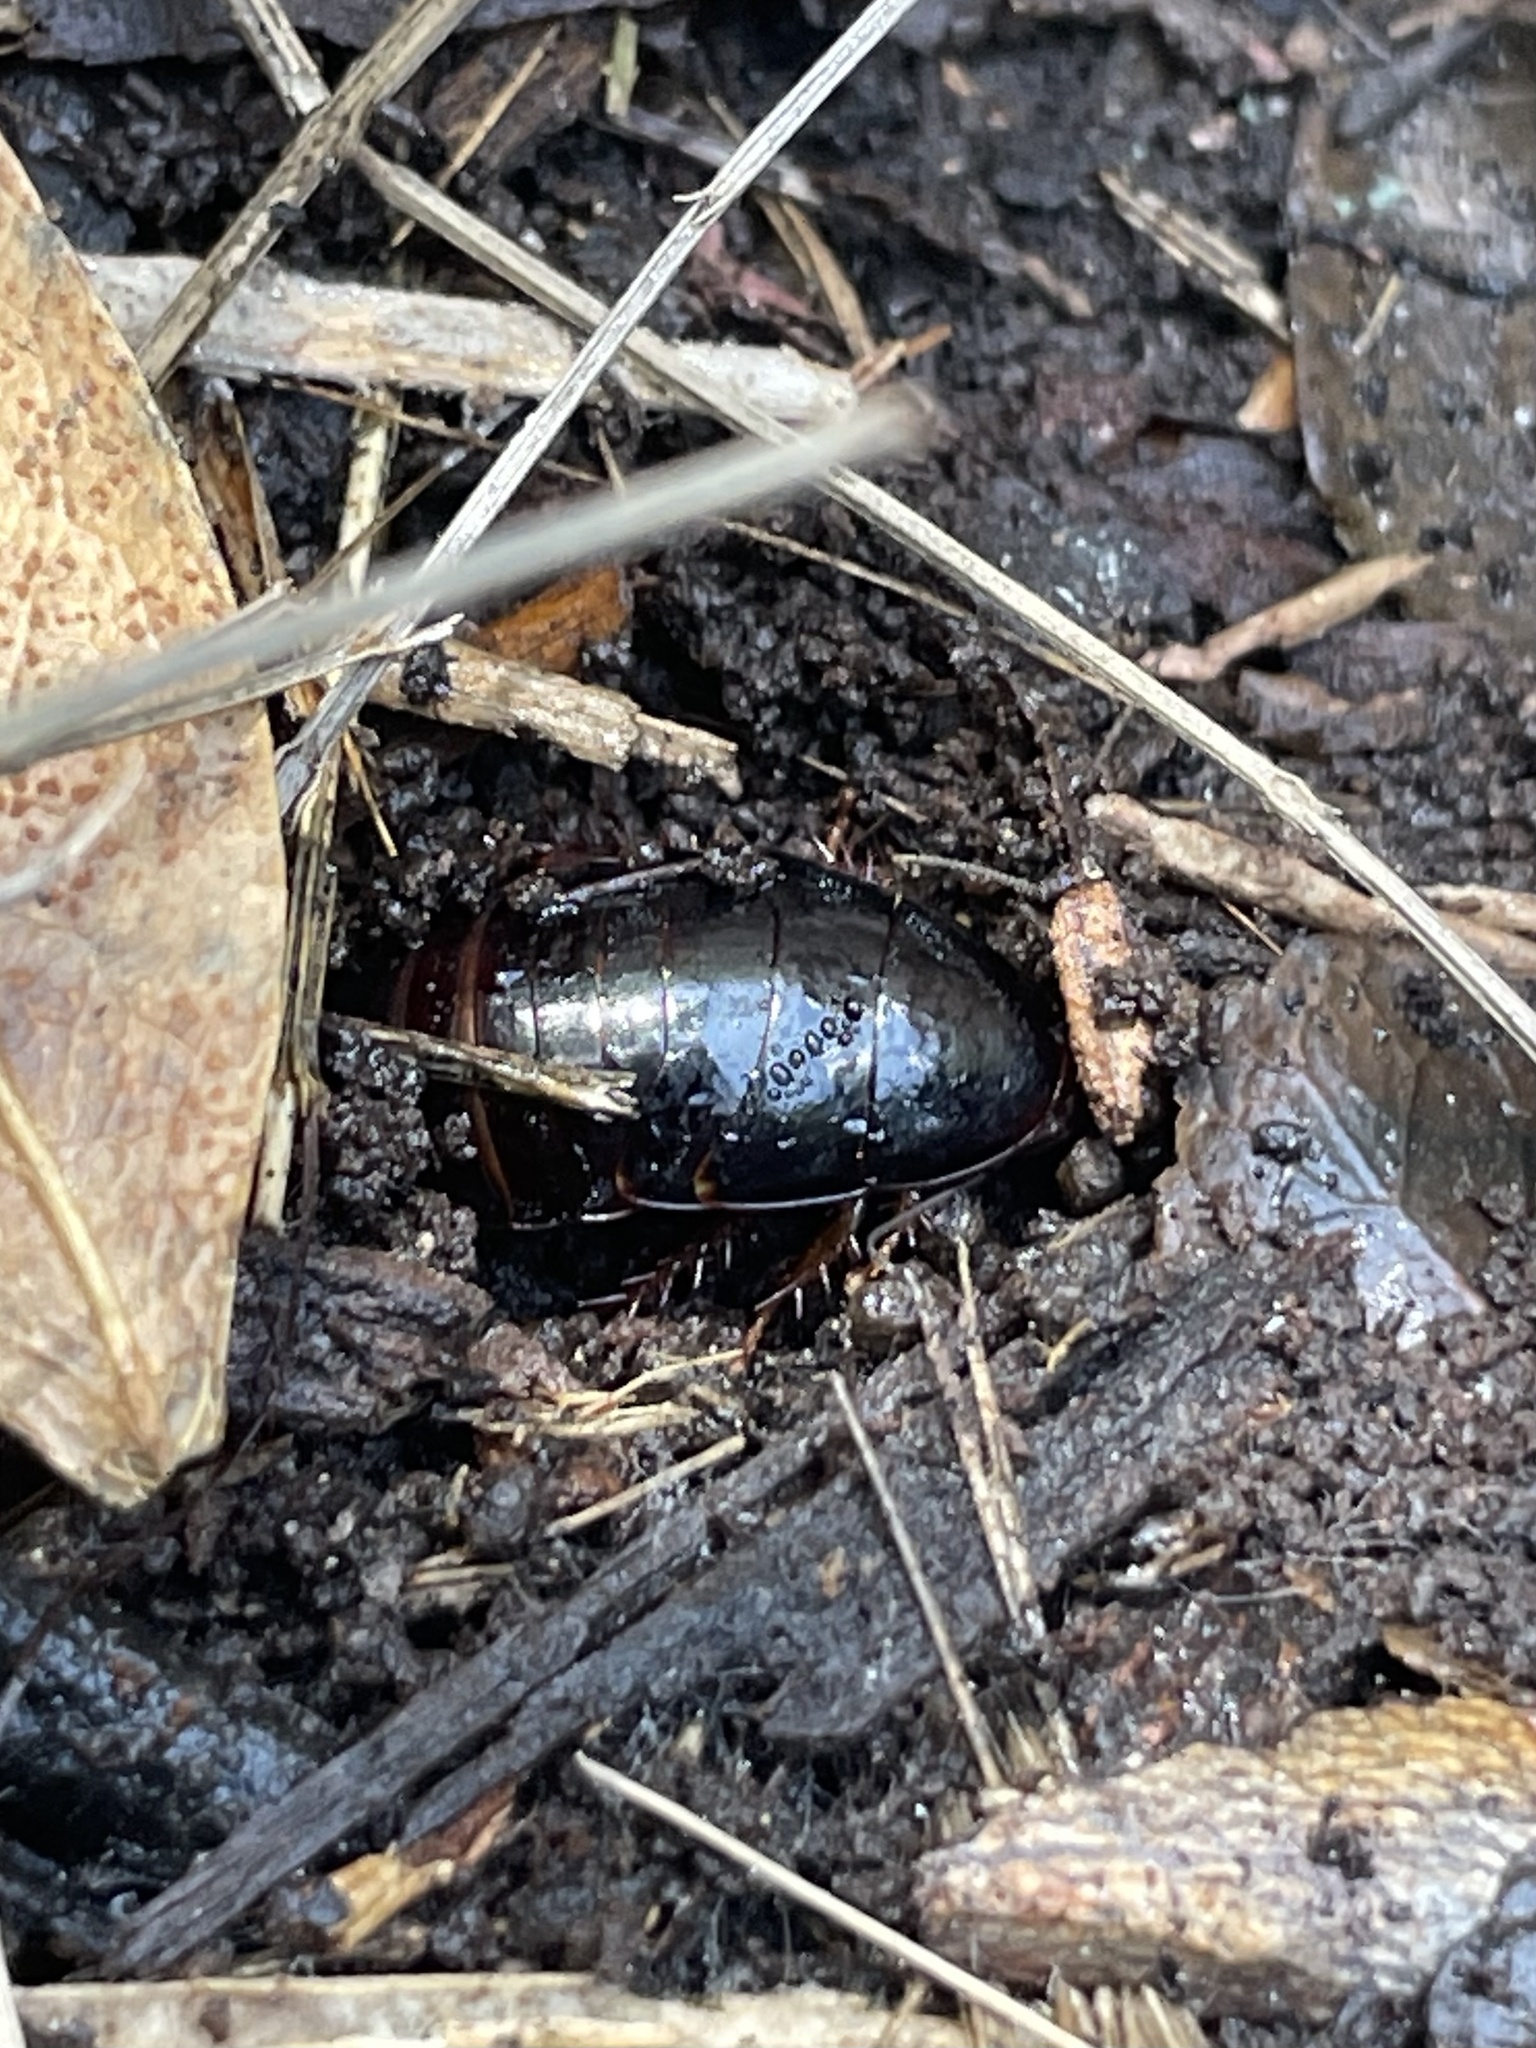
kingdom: Animalia
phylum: Arthropoda
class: Insecta
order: Blattodea
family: Blaberidae
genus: Pycnoscelus
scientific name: Pycnoscelus surinamensis
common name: Surinam cockroach
